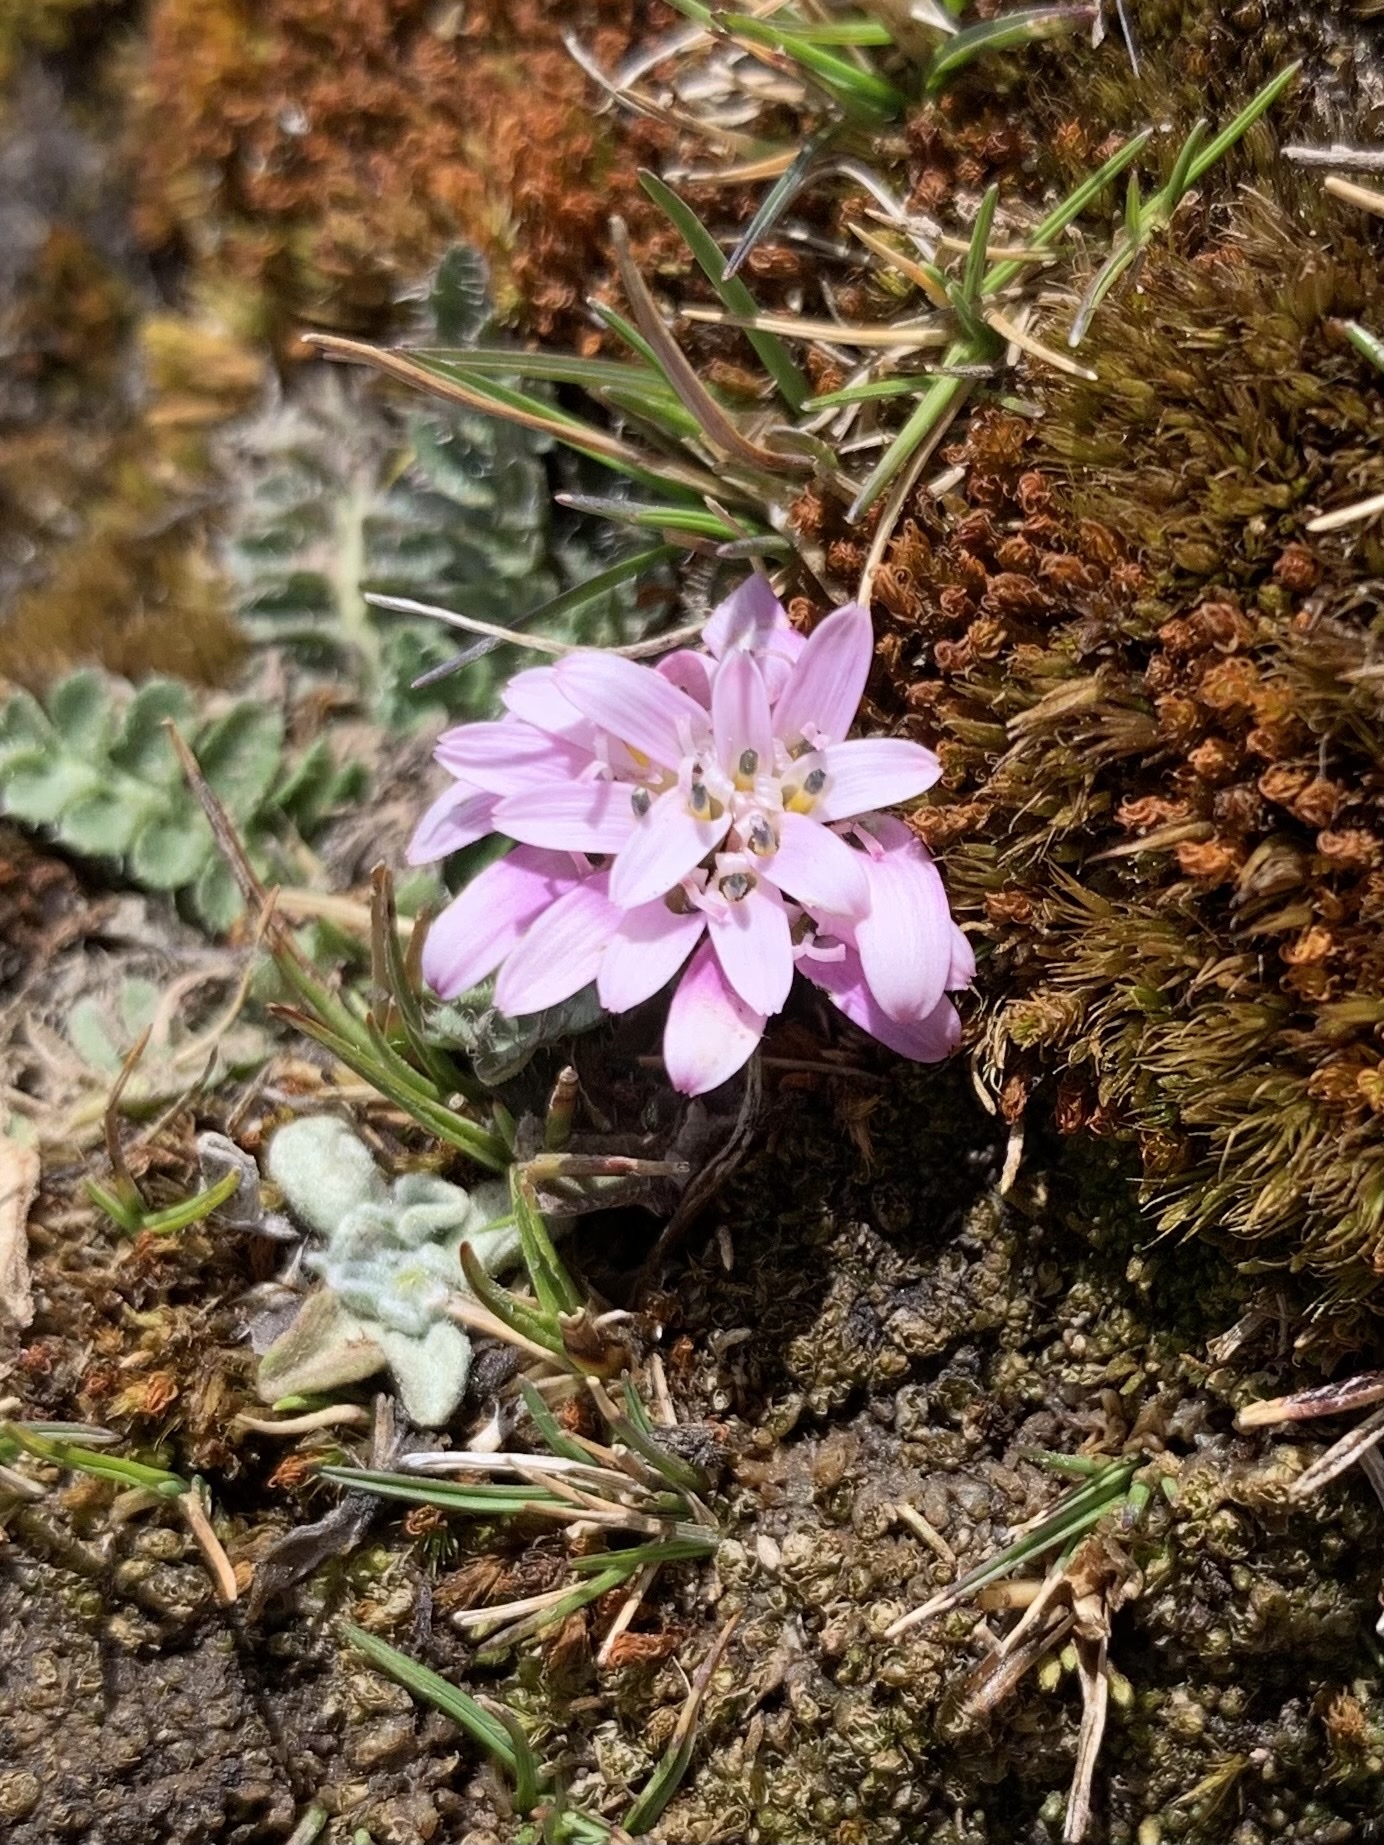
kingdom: Plantae
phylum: Tracheophyta
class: Magnoliopsida
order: Asterales
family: Asteraceae
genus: Perezia
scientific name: Perezia pinnatifida
